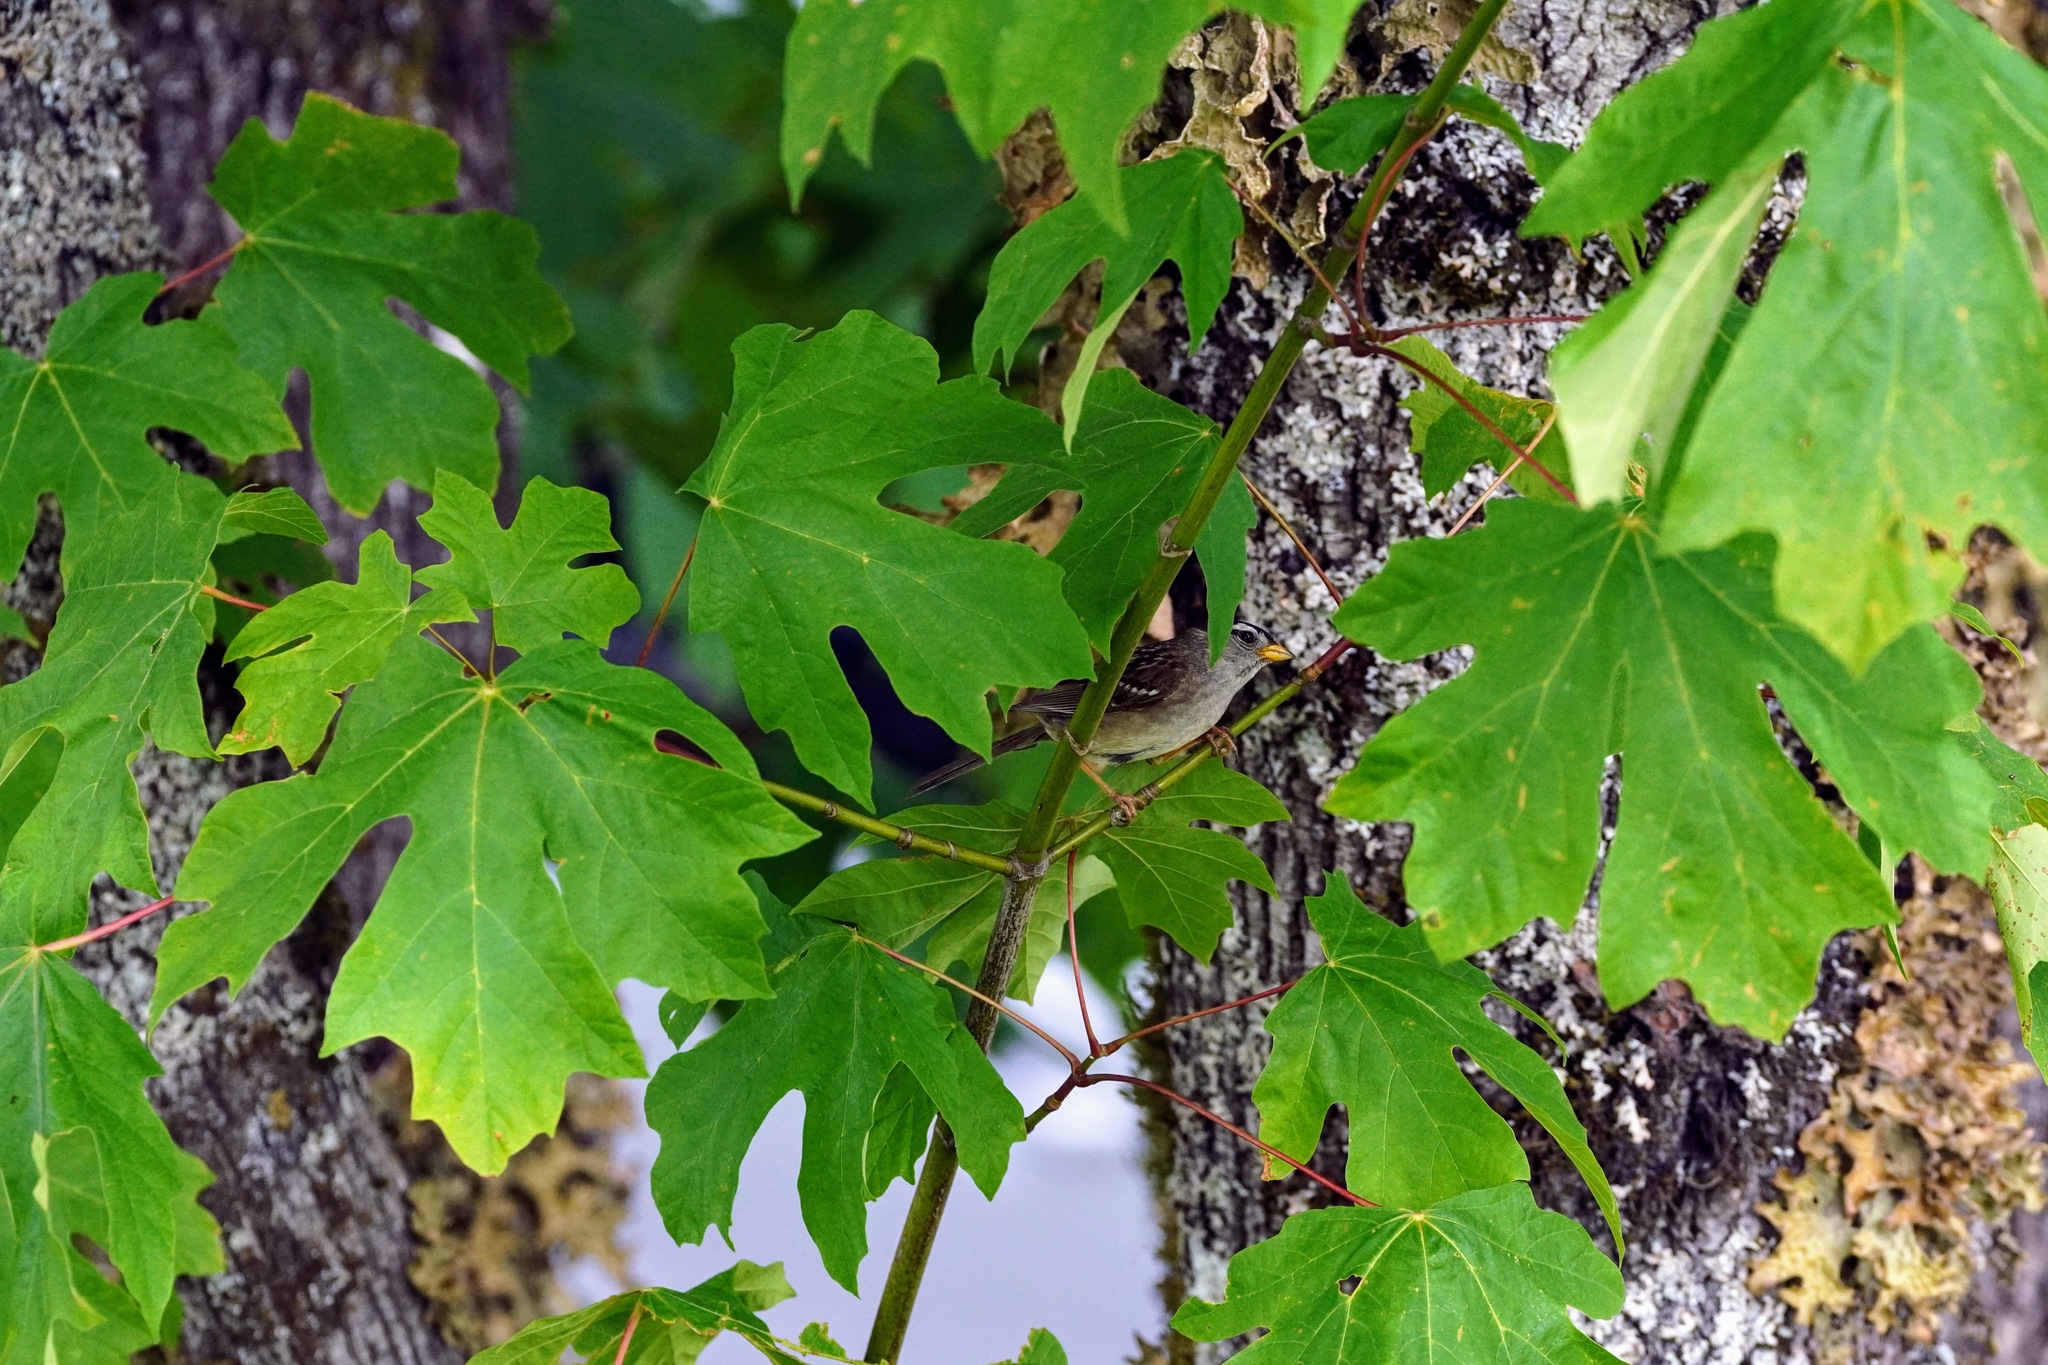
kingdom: Animalia
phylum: Chordata
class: Aves
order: Passeriformes
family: Passerellidae
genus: Zonotrichia
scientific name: Zonotrichia leucophrys
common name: White-crowned sparrow
